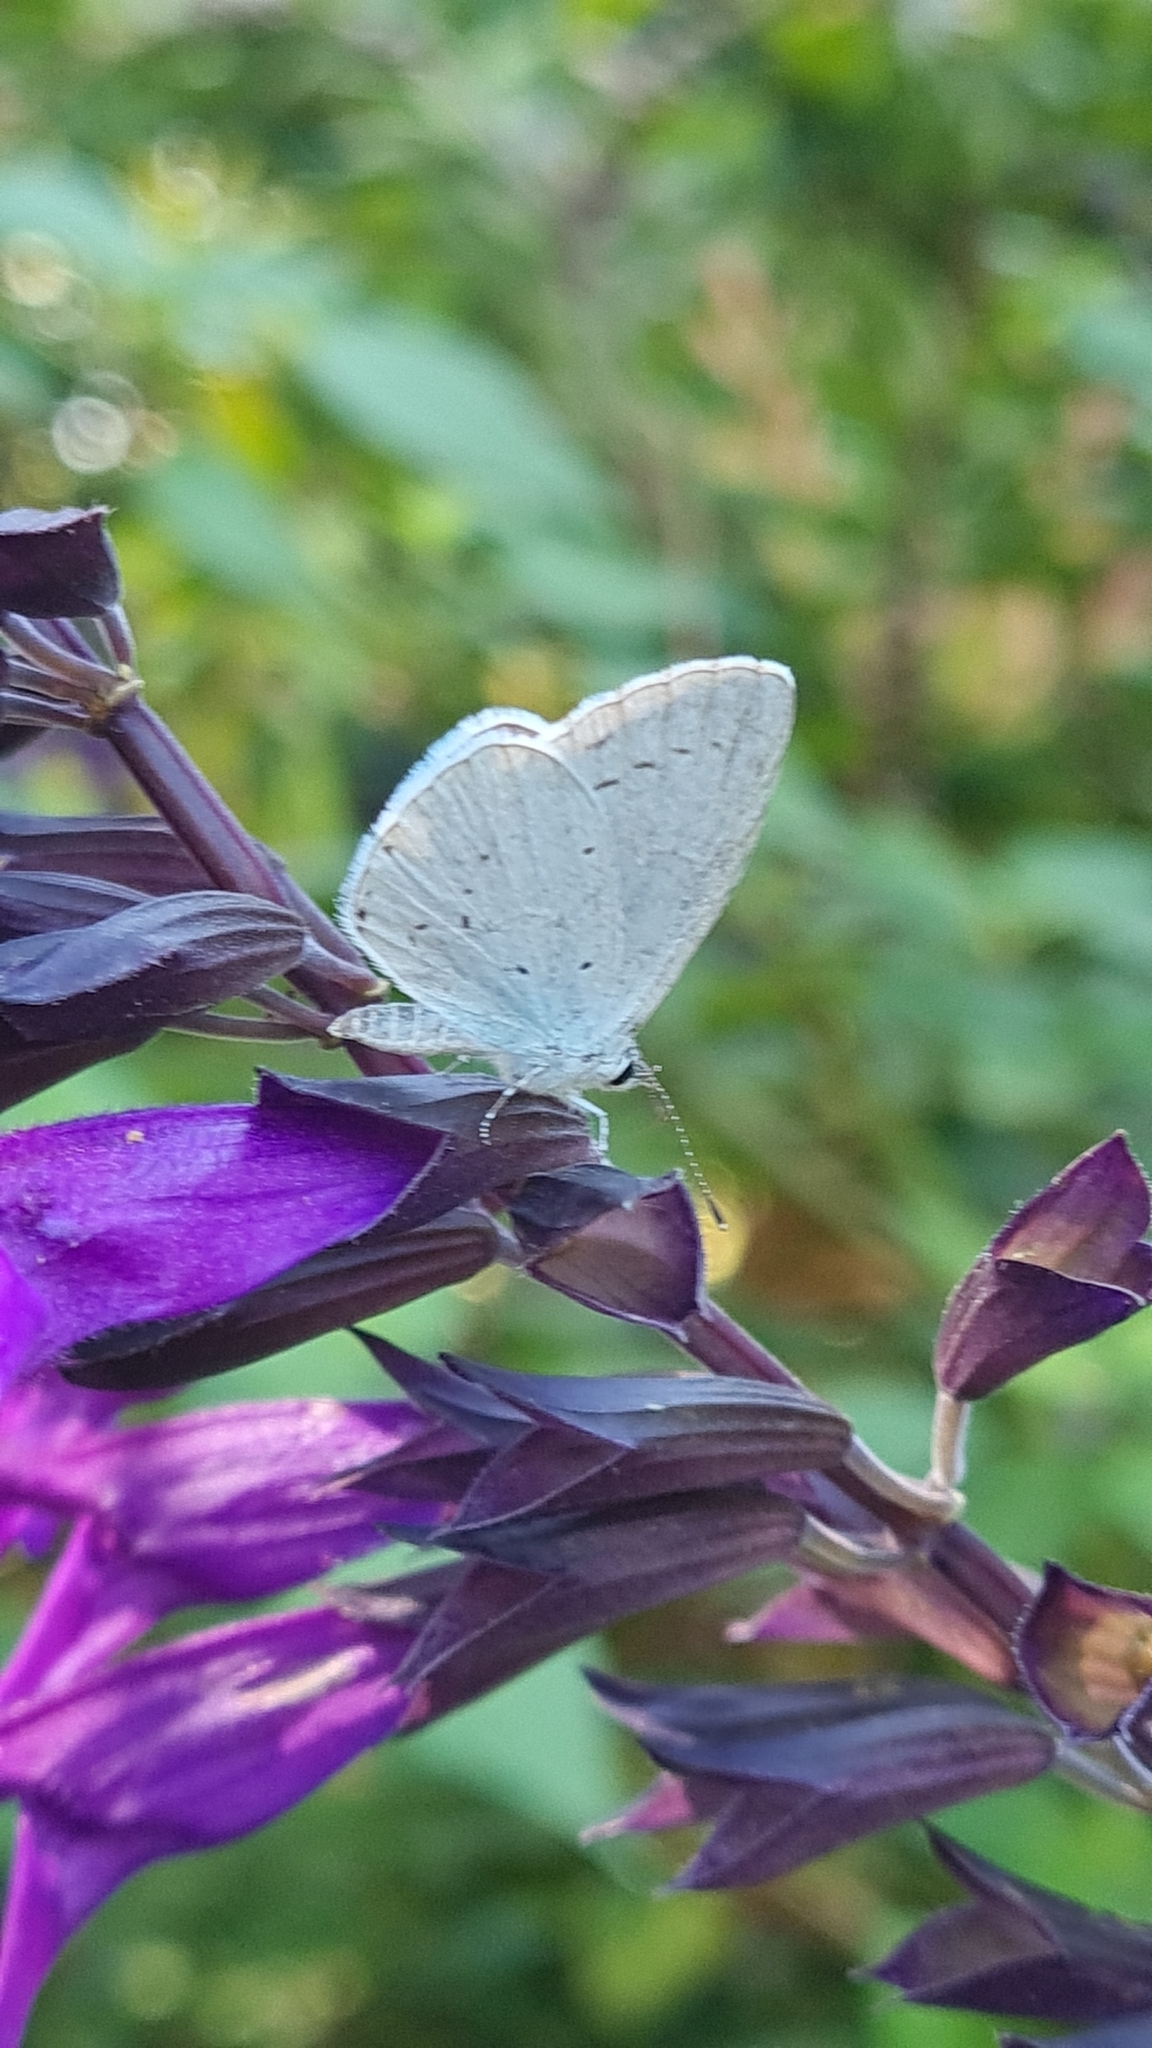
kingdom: Animalia
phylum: Arthropoda
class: Insecta
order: Lepidoptera
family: Lycaenidae
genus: Celastrina
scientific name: Celastrina argiolus
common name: Holly blue
